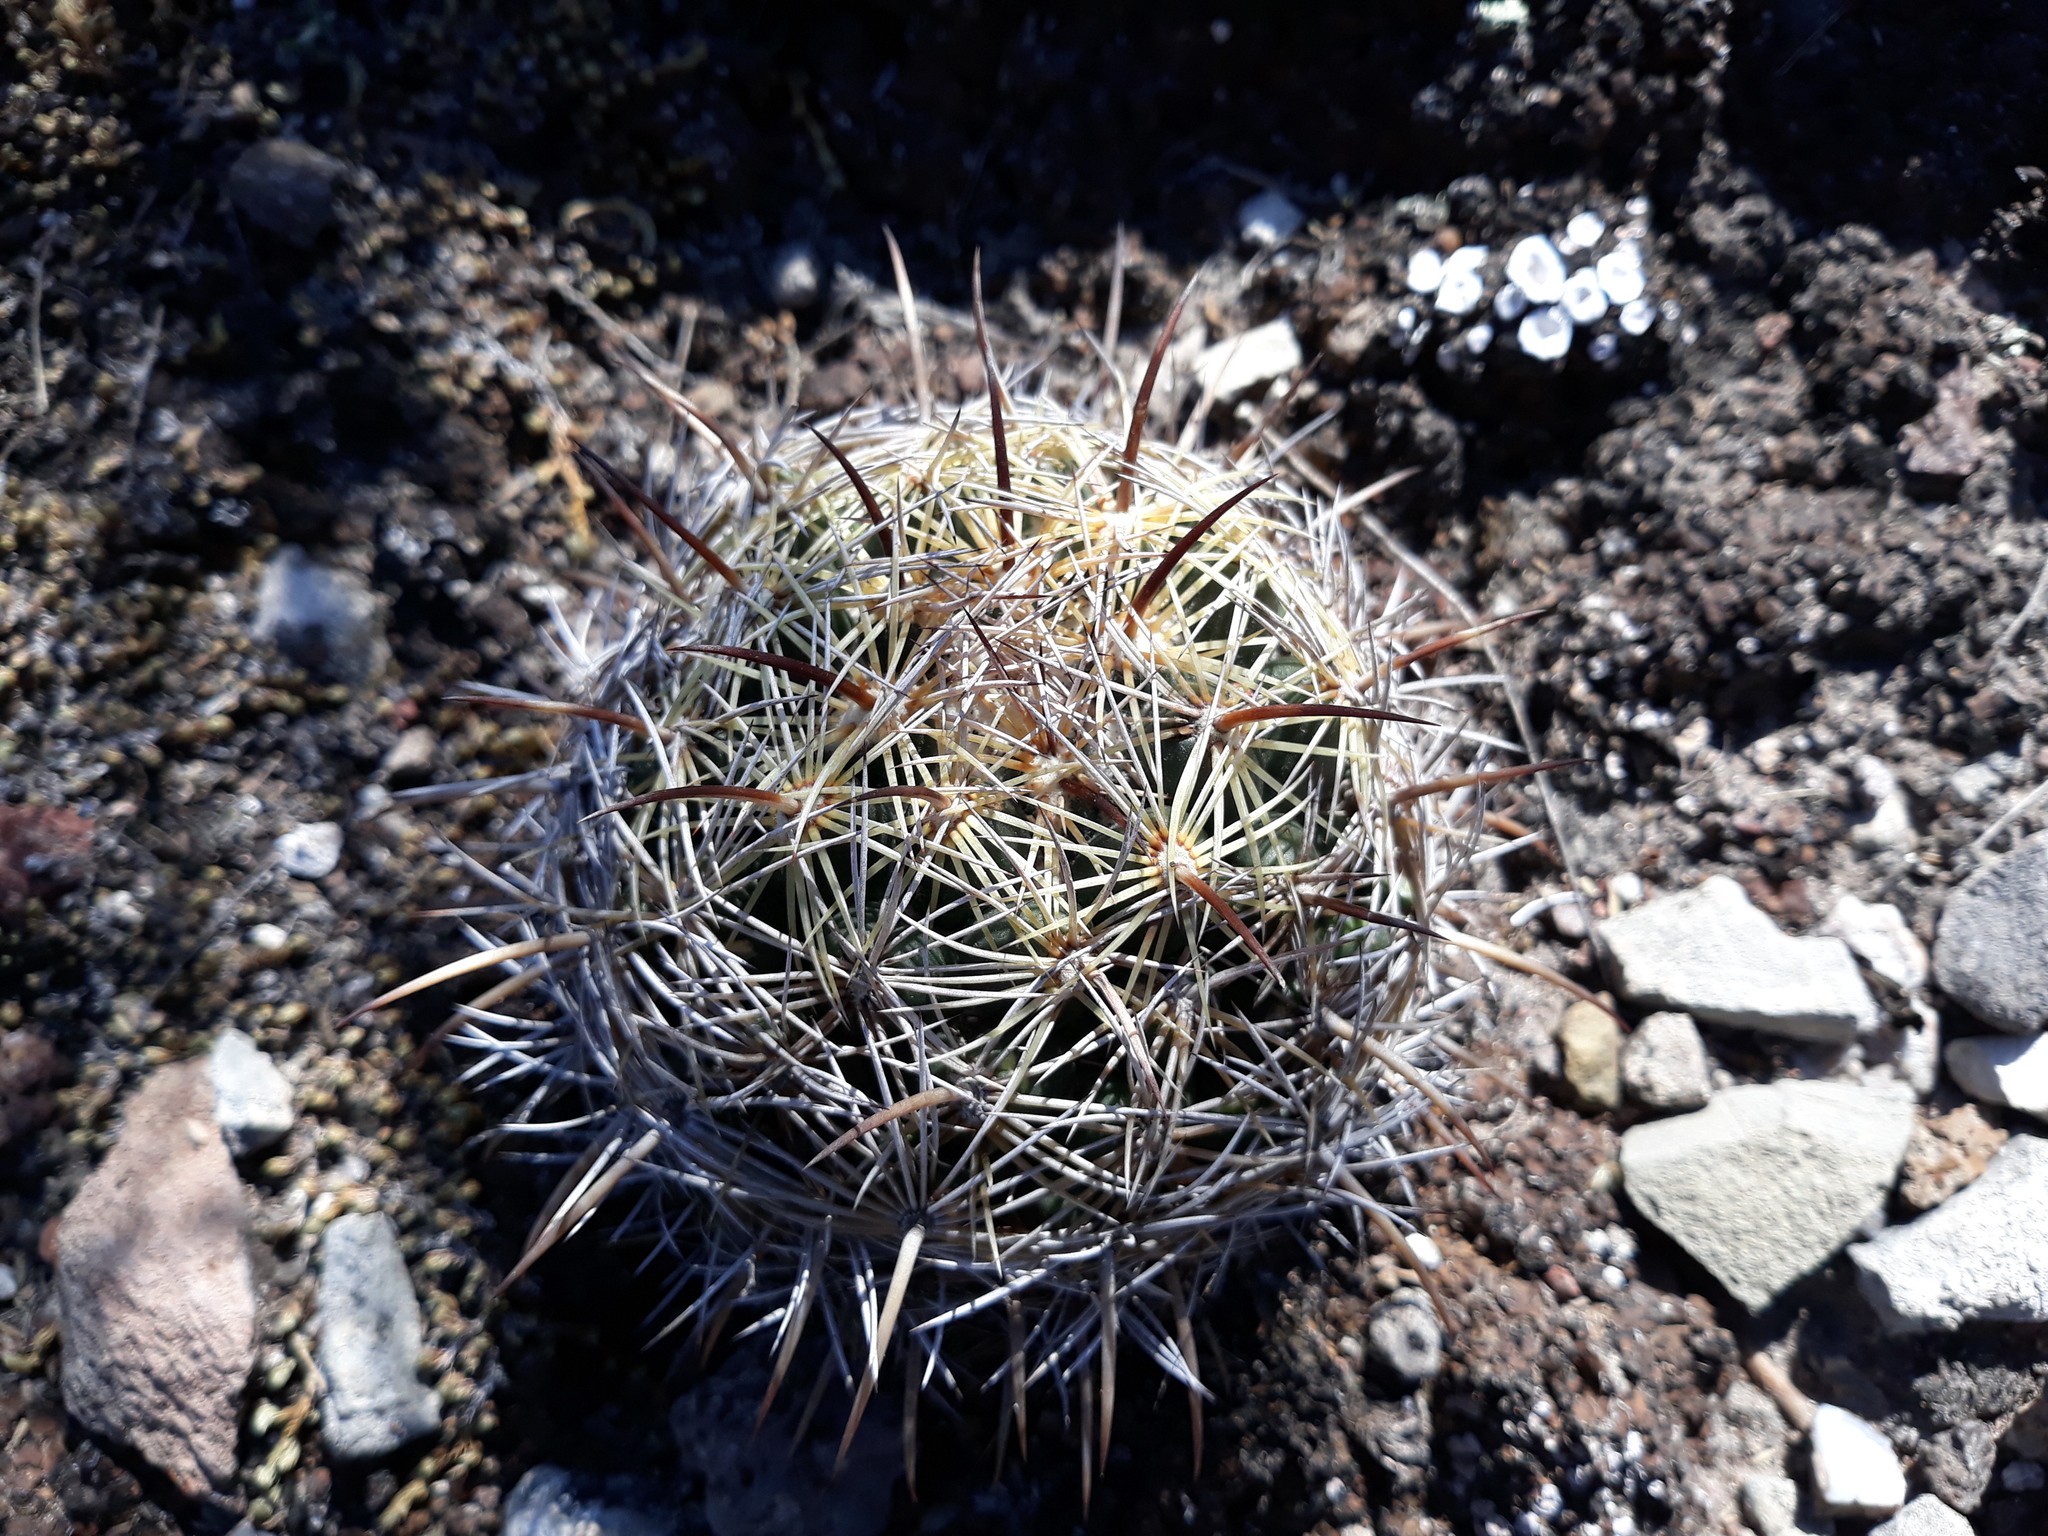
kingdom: Plantae
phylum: Tracheophyta
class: Magnoliopsida
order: Caryophyllales
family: Cactaceae
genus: Coryphantha
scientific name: Coryphantha cornifera
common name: Rhinoceros cactus
